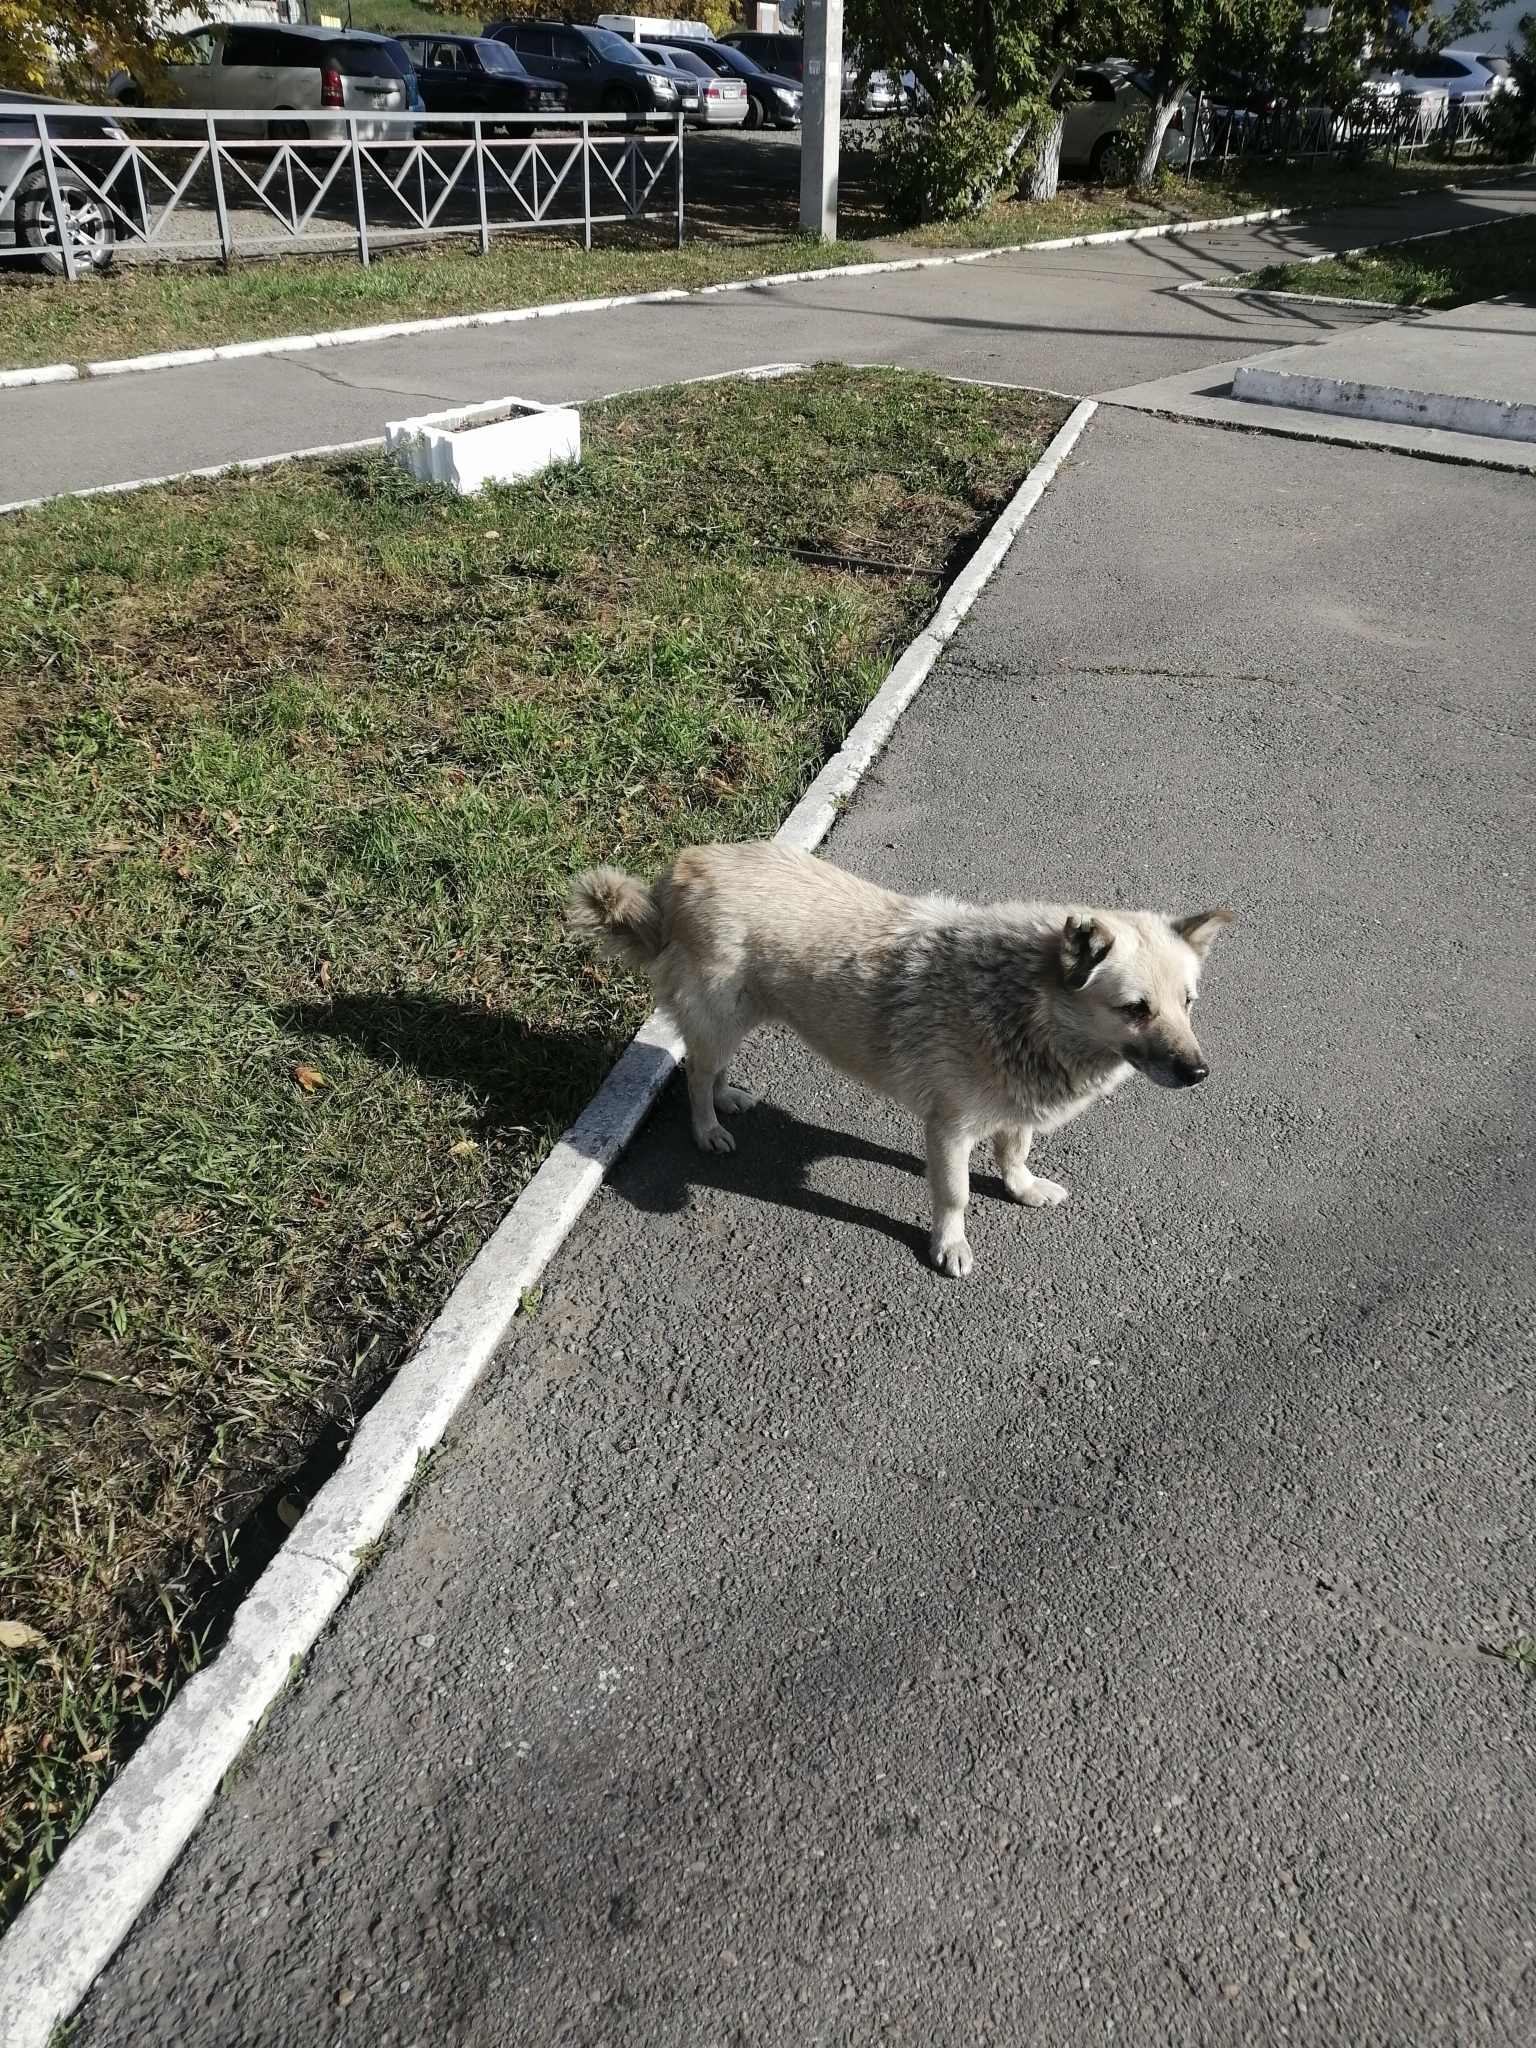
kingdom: Animalia
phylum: Chordata
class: Mammalia
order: Carnivora
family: Canidae
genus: Canis
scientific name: Canis lupus
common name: Gray wolf
